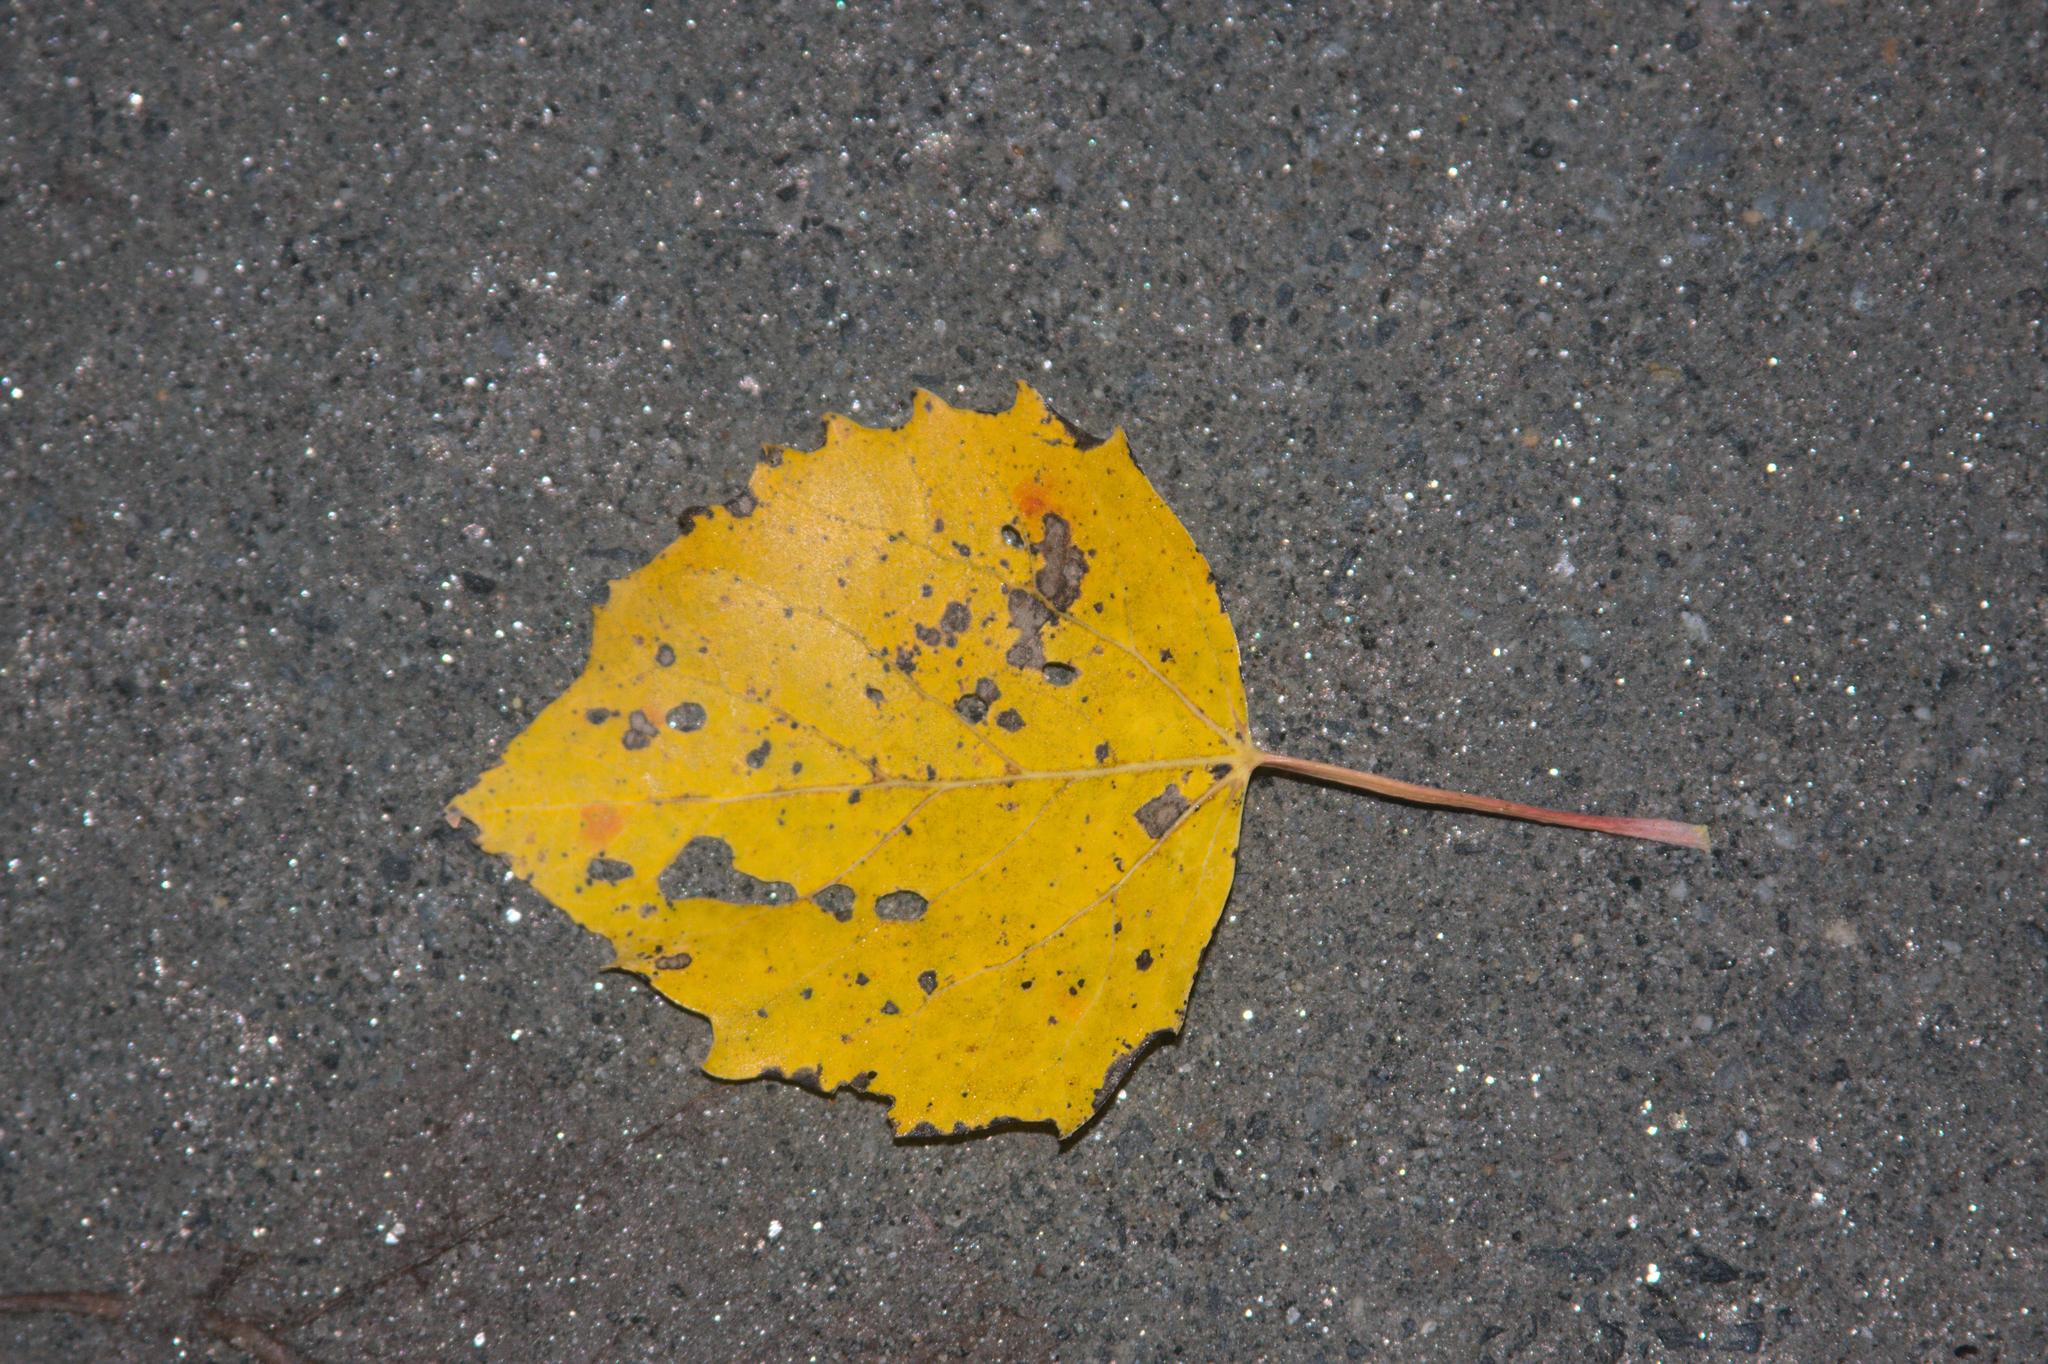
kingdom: Plantae
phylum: Tracheophyta
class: Magnoliopsida
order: Malpighiales
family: Salicaceae
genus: Populus
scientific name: Populus grandidentata
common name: Bigtooth aspen
